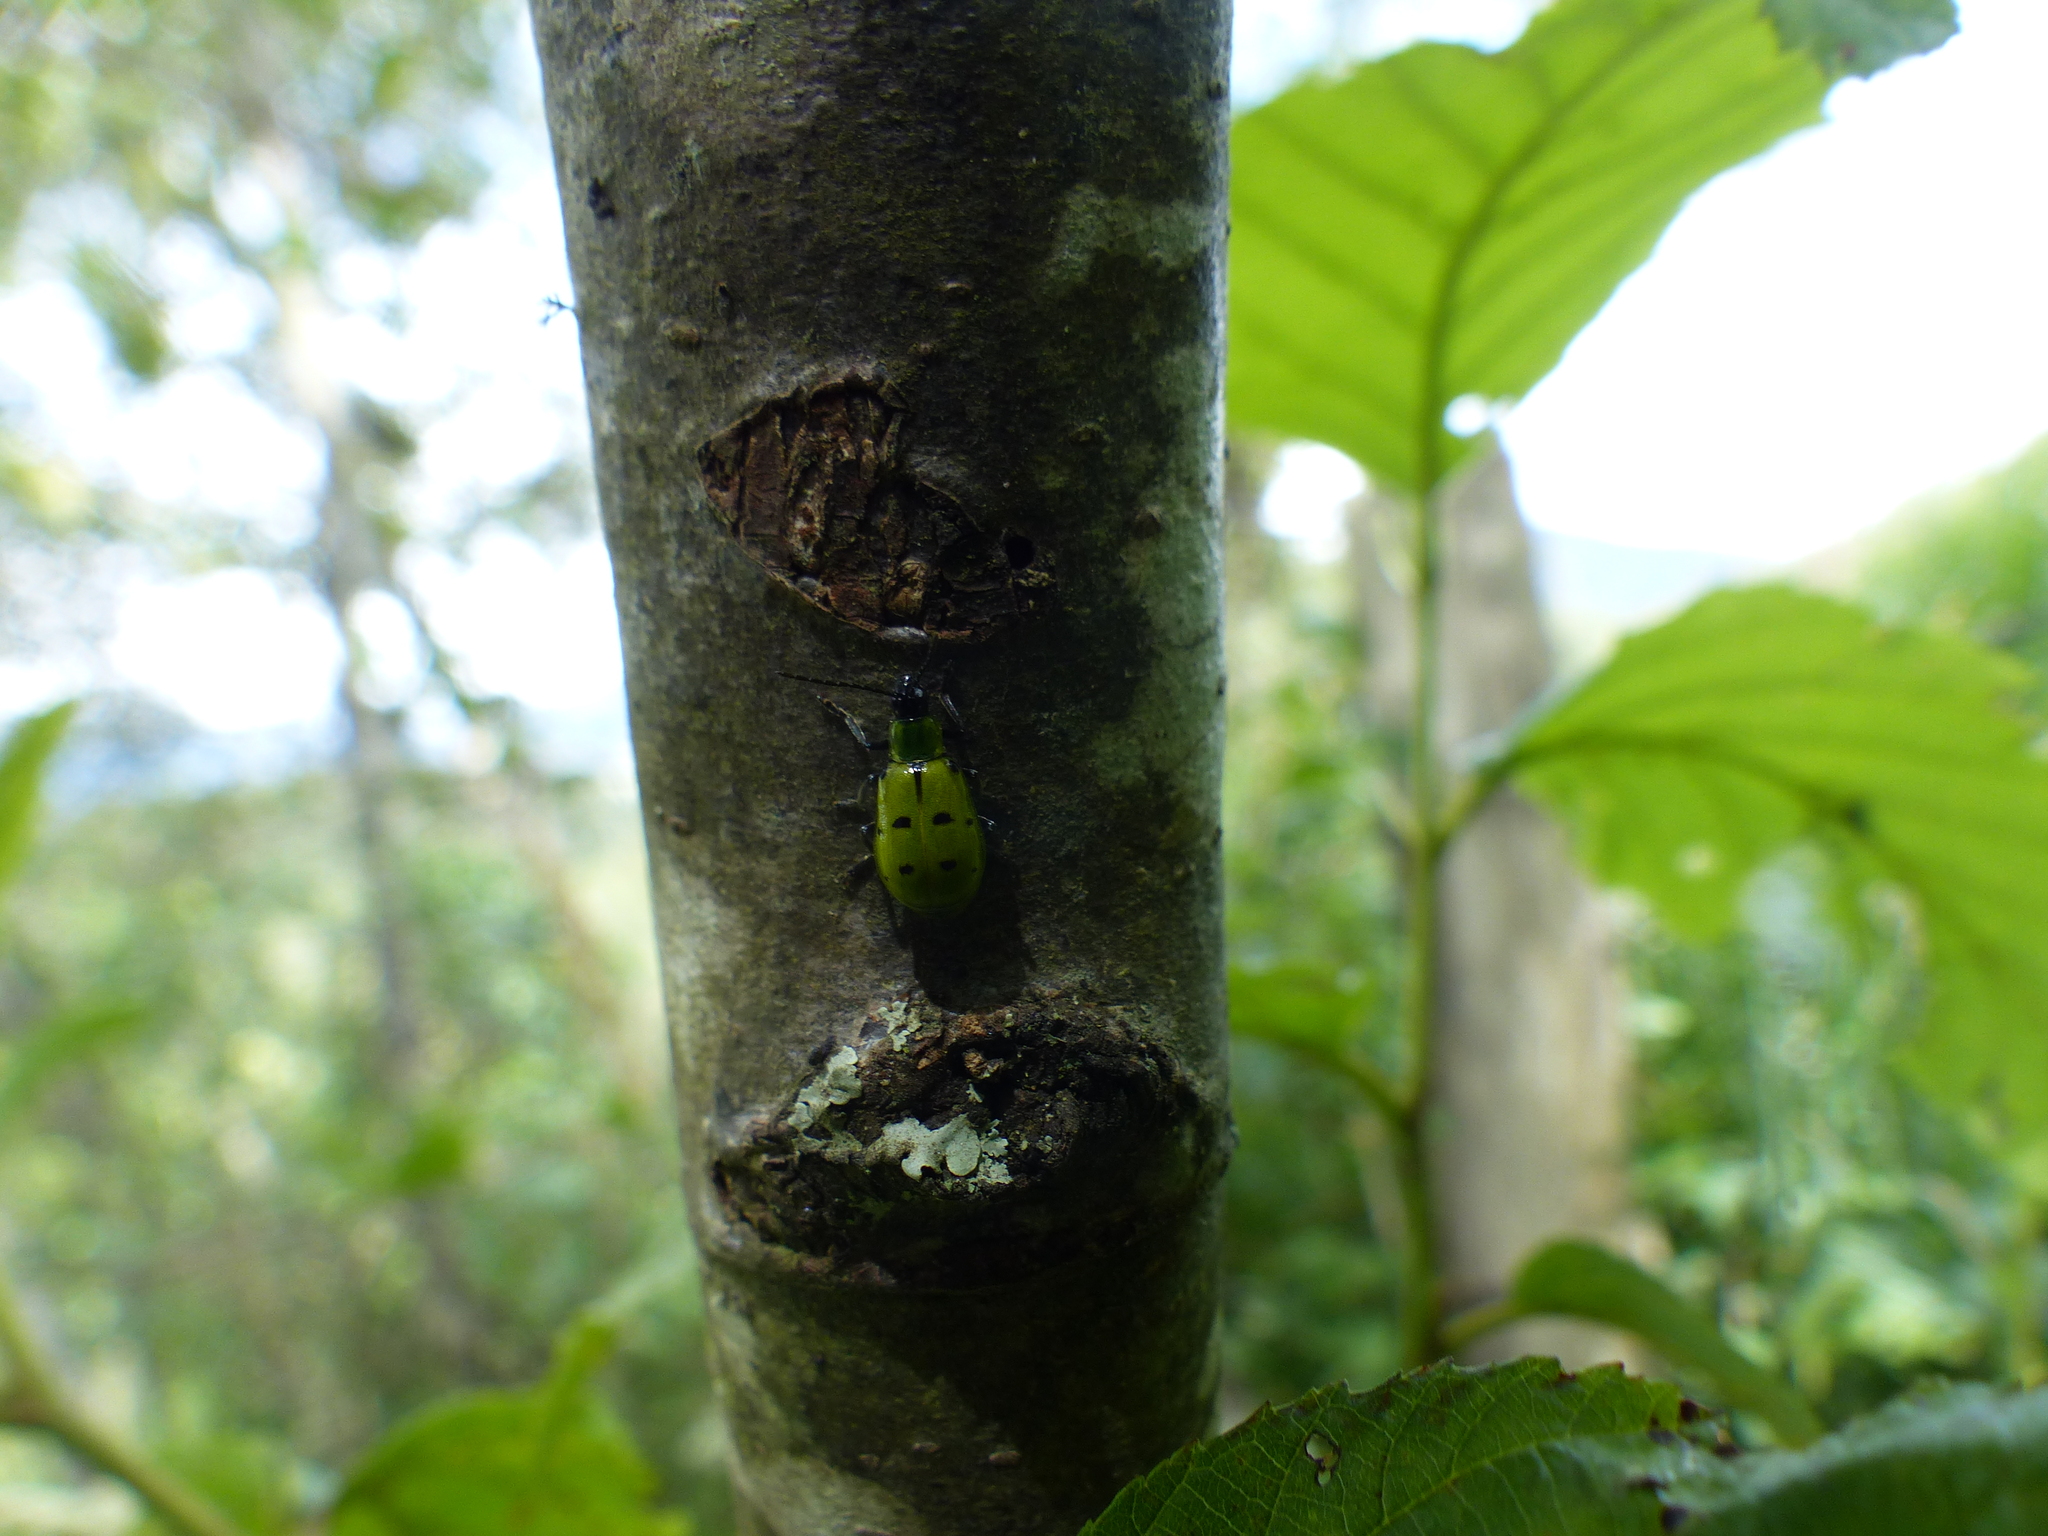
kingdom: Animalia
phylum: Arthropoda
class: Insecta
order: Coleoptera
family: Chrysomelidae
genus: Diabrotica
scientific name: Diabrotica decempunctata
